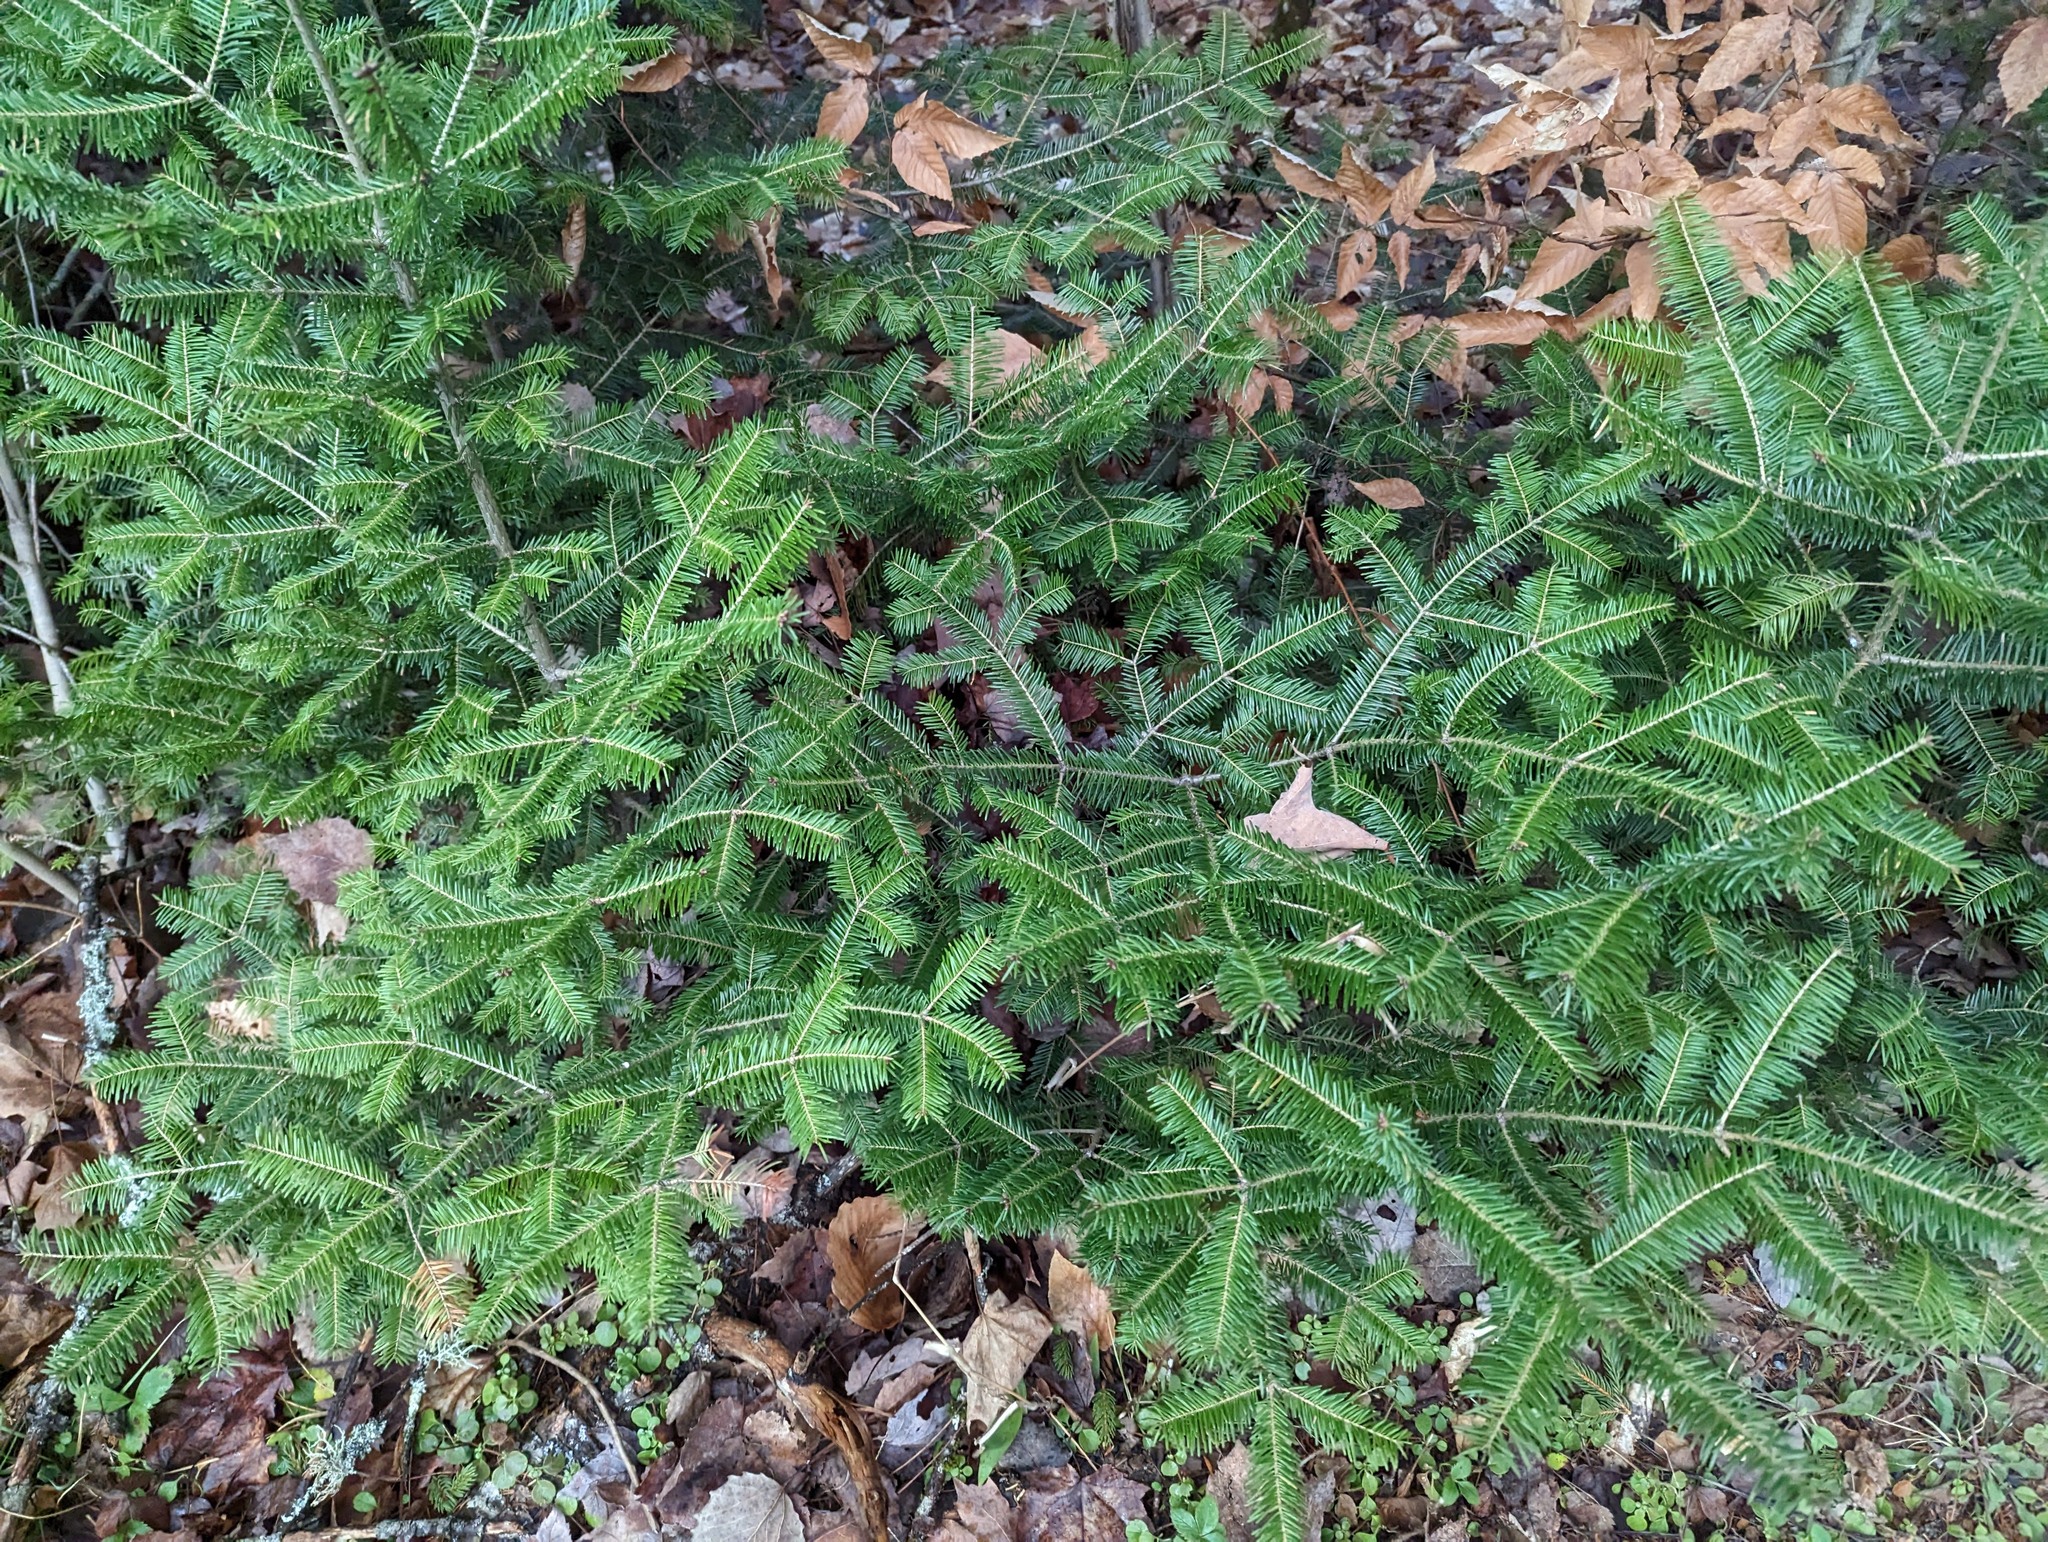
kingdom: Plantae
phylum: Tracheophyta
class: Pinopsida
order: Pinales
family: Pinaceae
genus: Abies
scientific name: Abies balsamea
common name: Balsam fir
